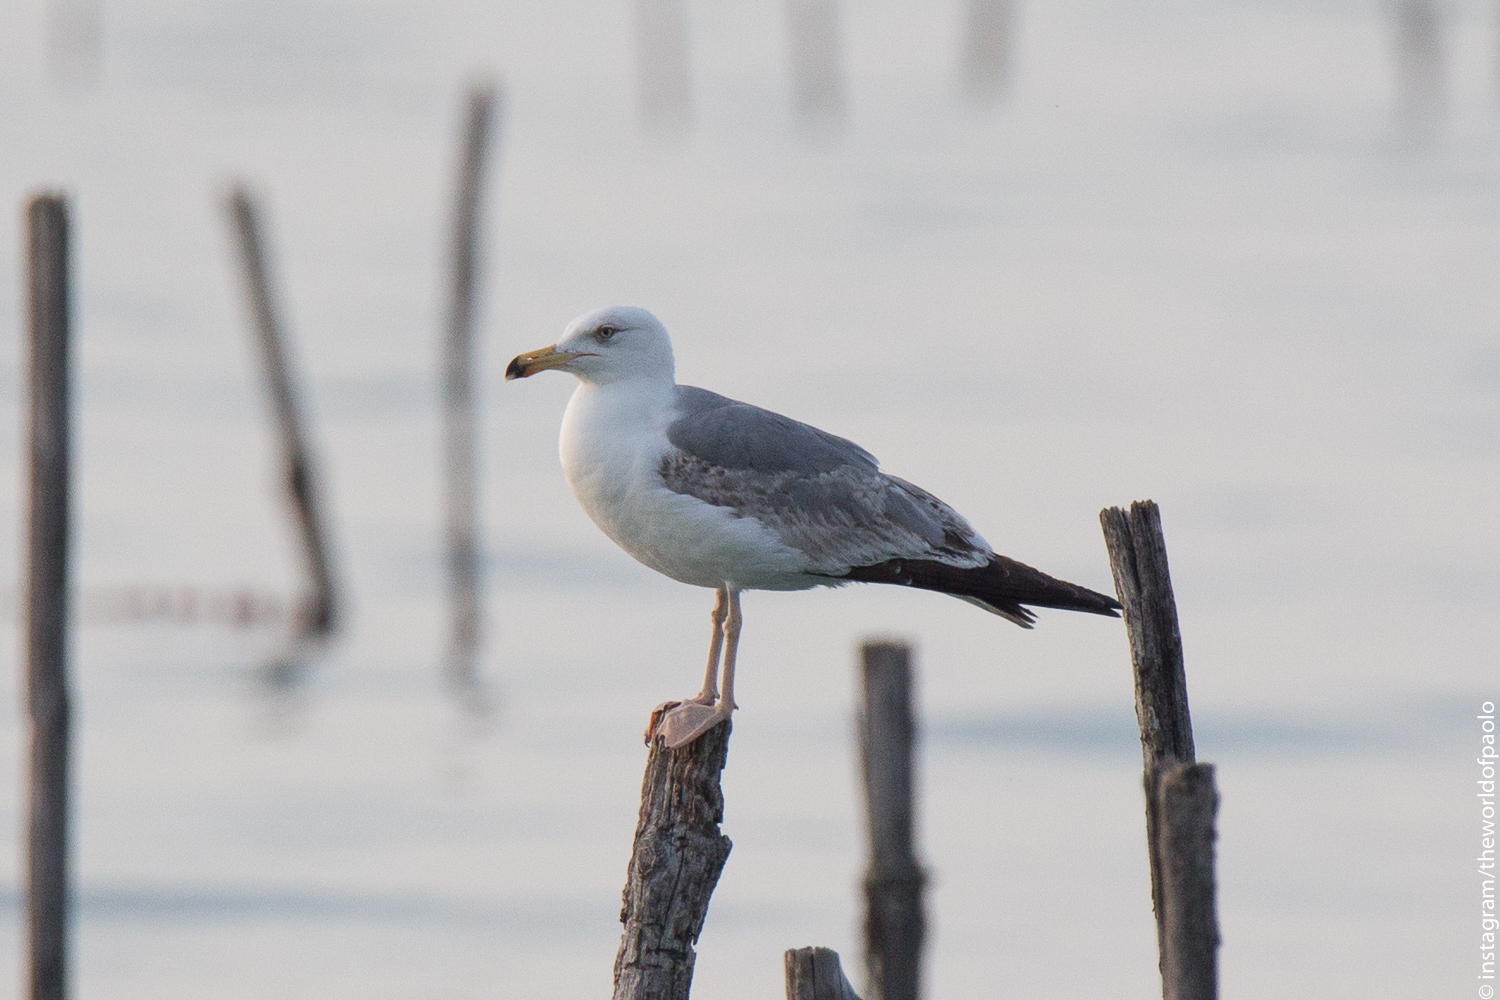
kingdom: Animalia
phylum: Chordata
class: Aves
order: Charadriiformes
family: Laridae
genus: Larus
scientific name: Larus michahellis
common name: Yellow-legged gull
